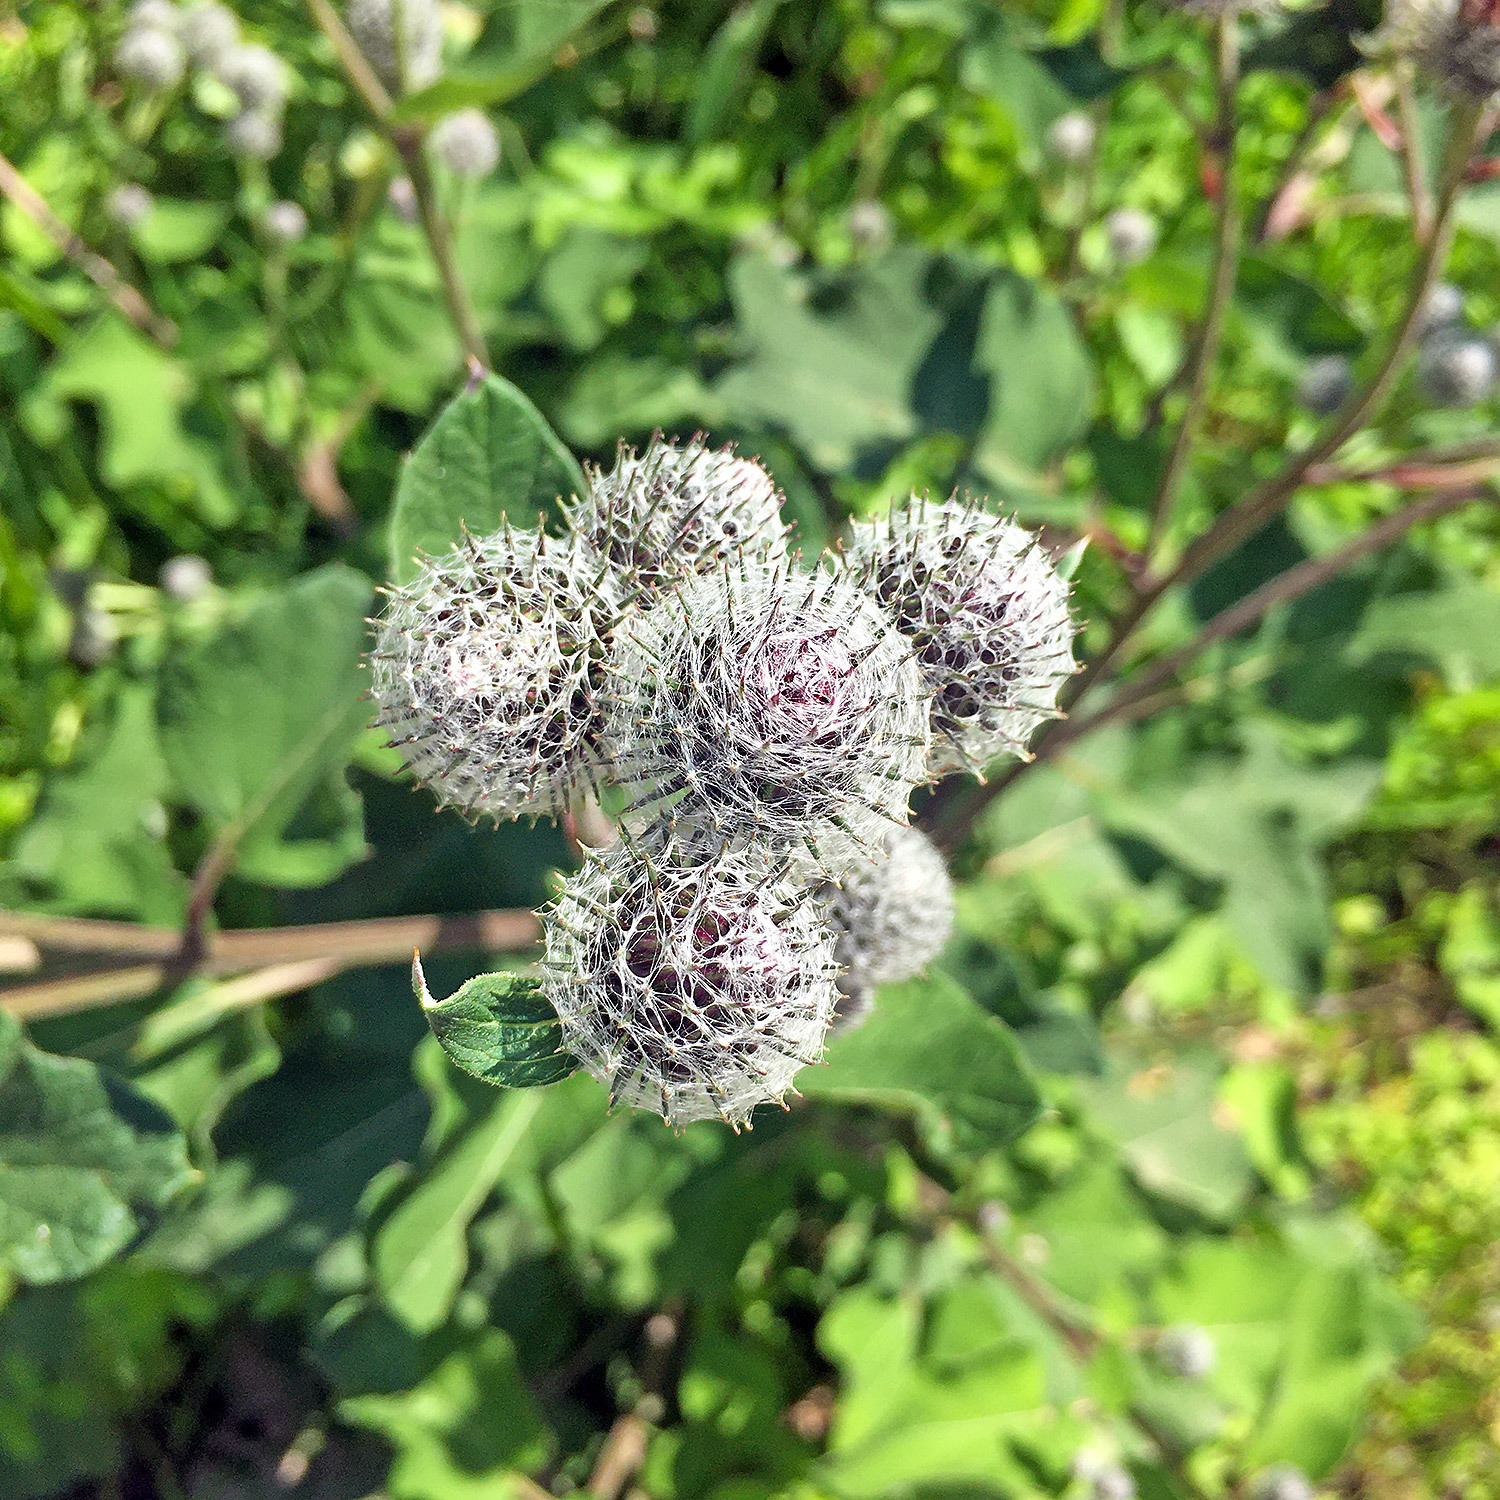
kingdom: Plantae
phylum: Tracheophyta
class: Magnoliopsida
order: Asterales
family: Asteraceae
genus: Arctium
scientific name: Arctium tomentosum
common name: Woolly burdock
